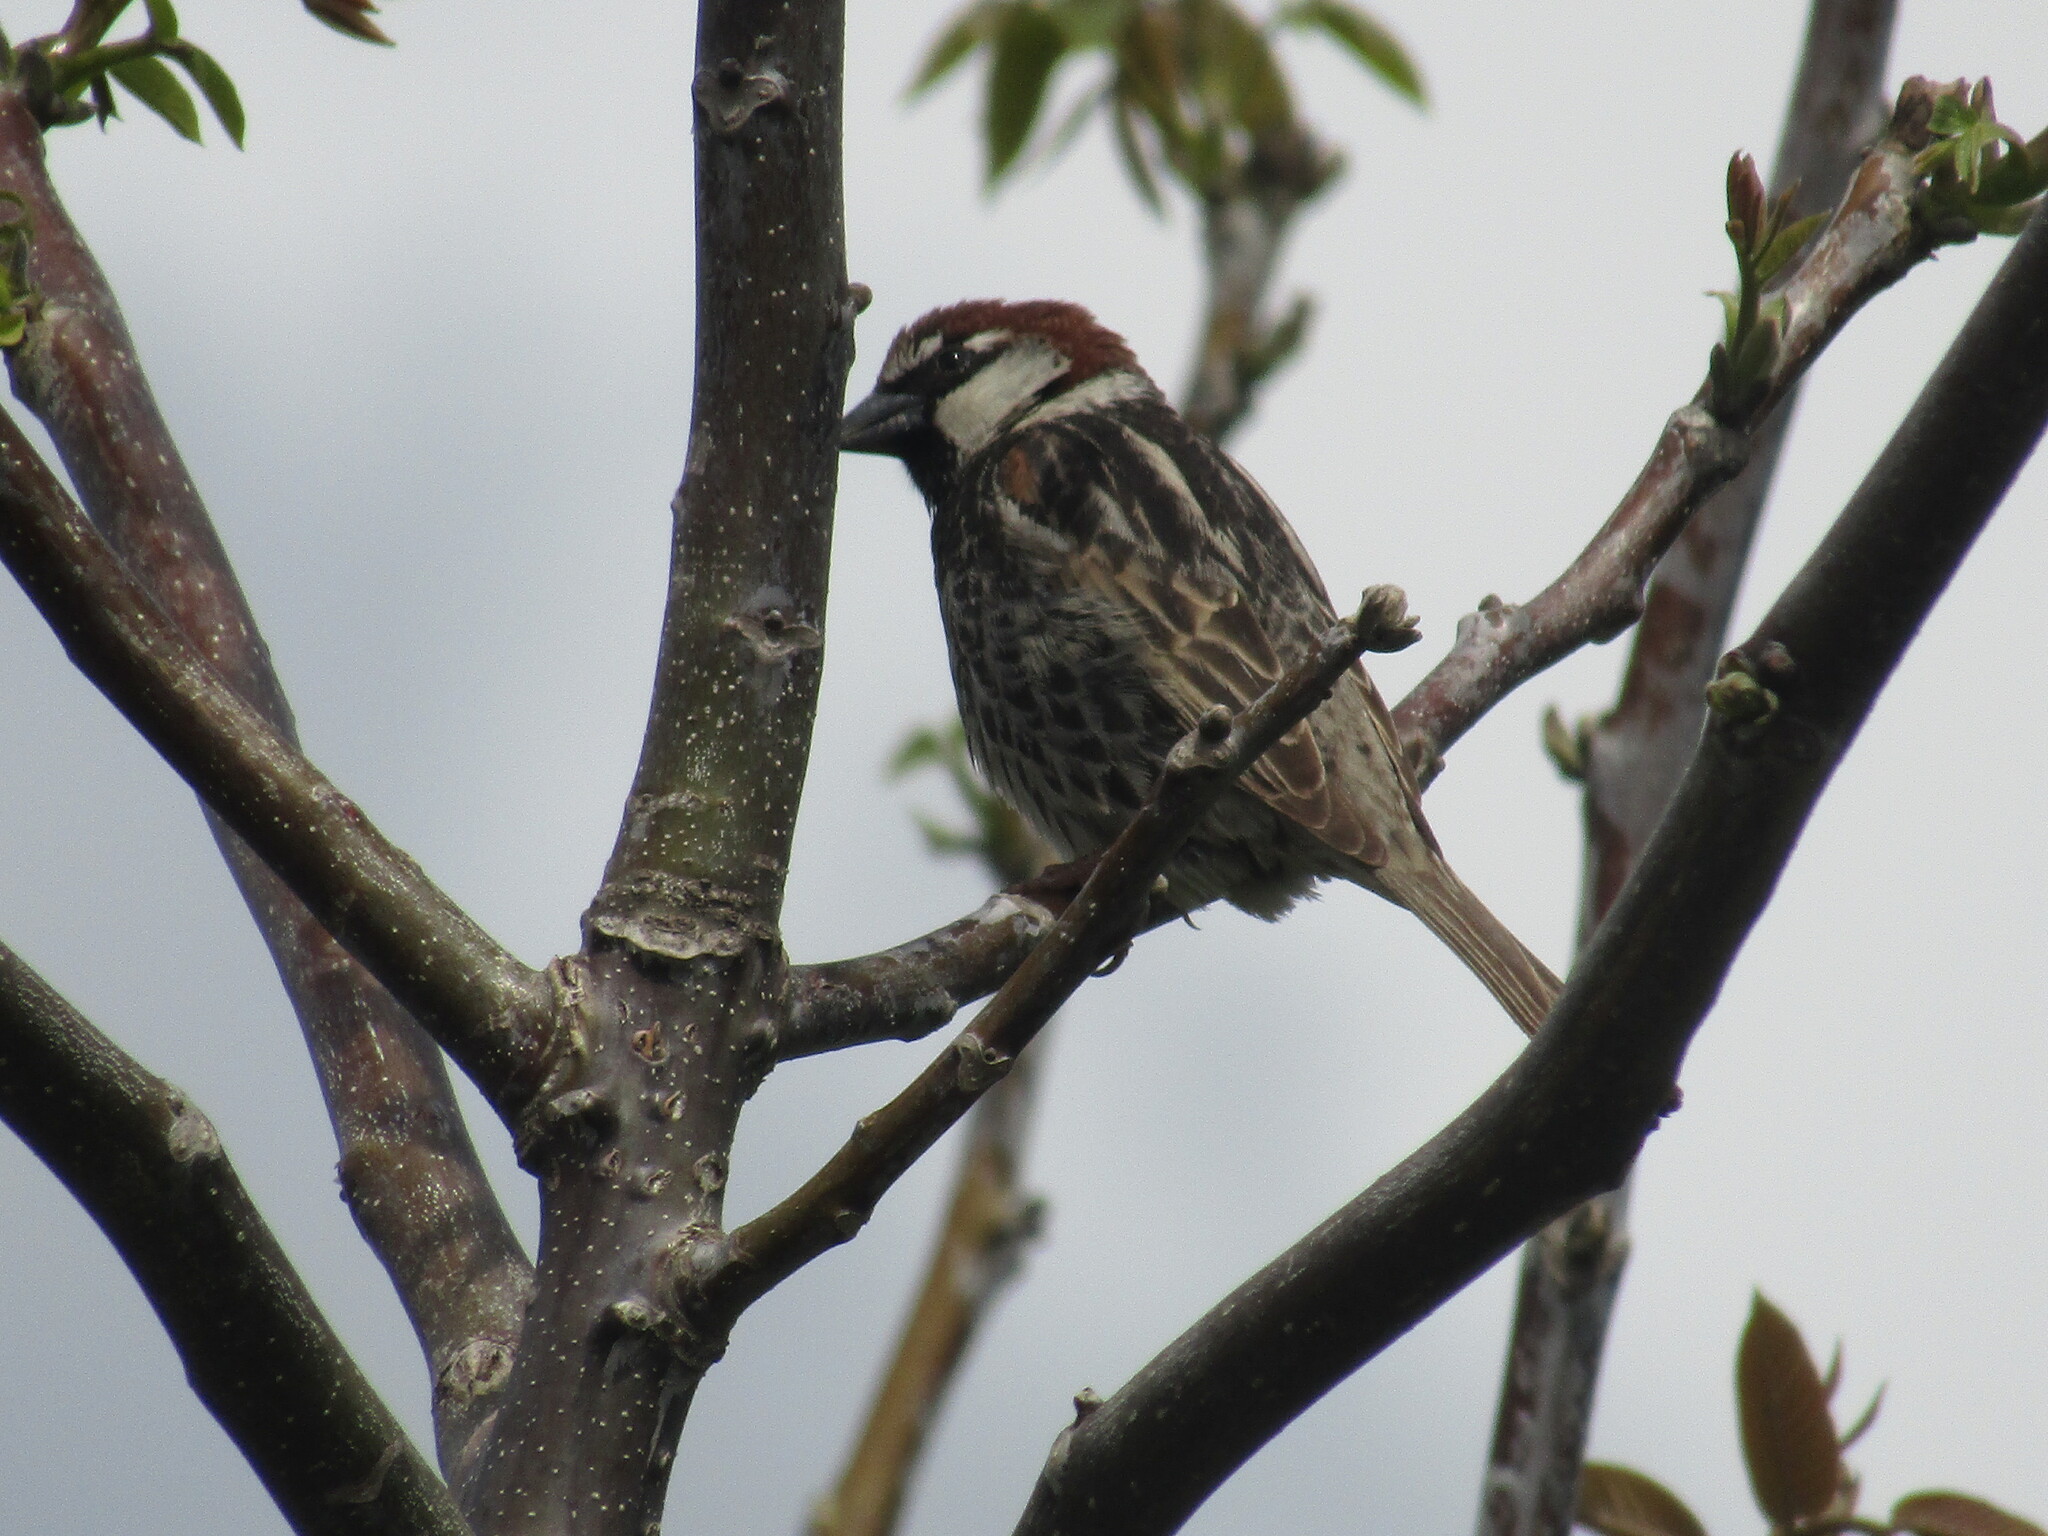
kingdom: Animalia
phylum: Chordata
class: Aves
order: Passeriformes
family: Passeridae
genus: Passer
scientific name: Passer hispaniolensis
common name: Spanish sparrow
